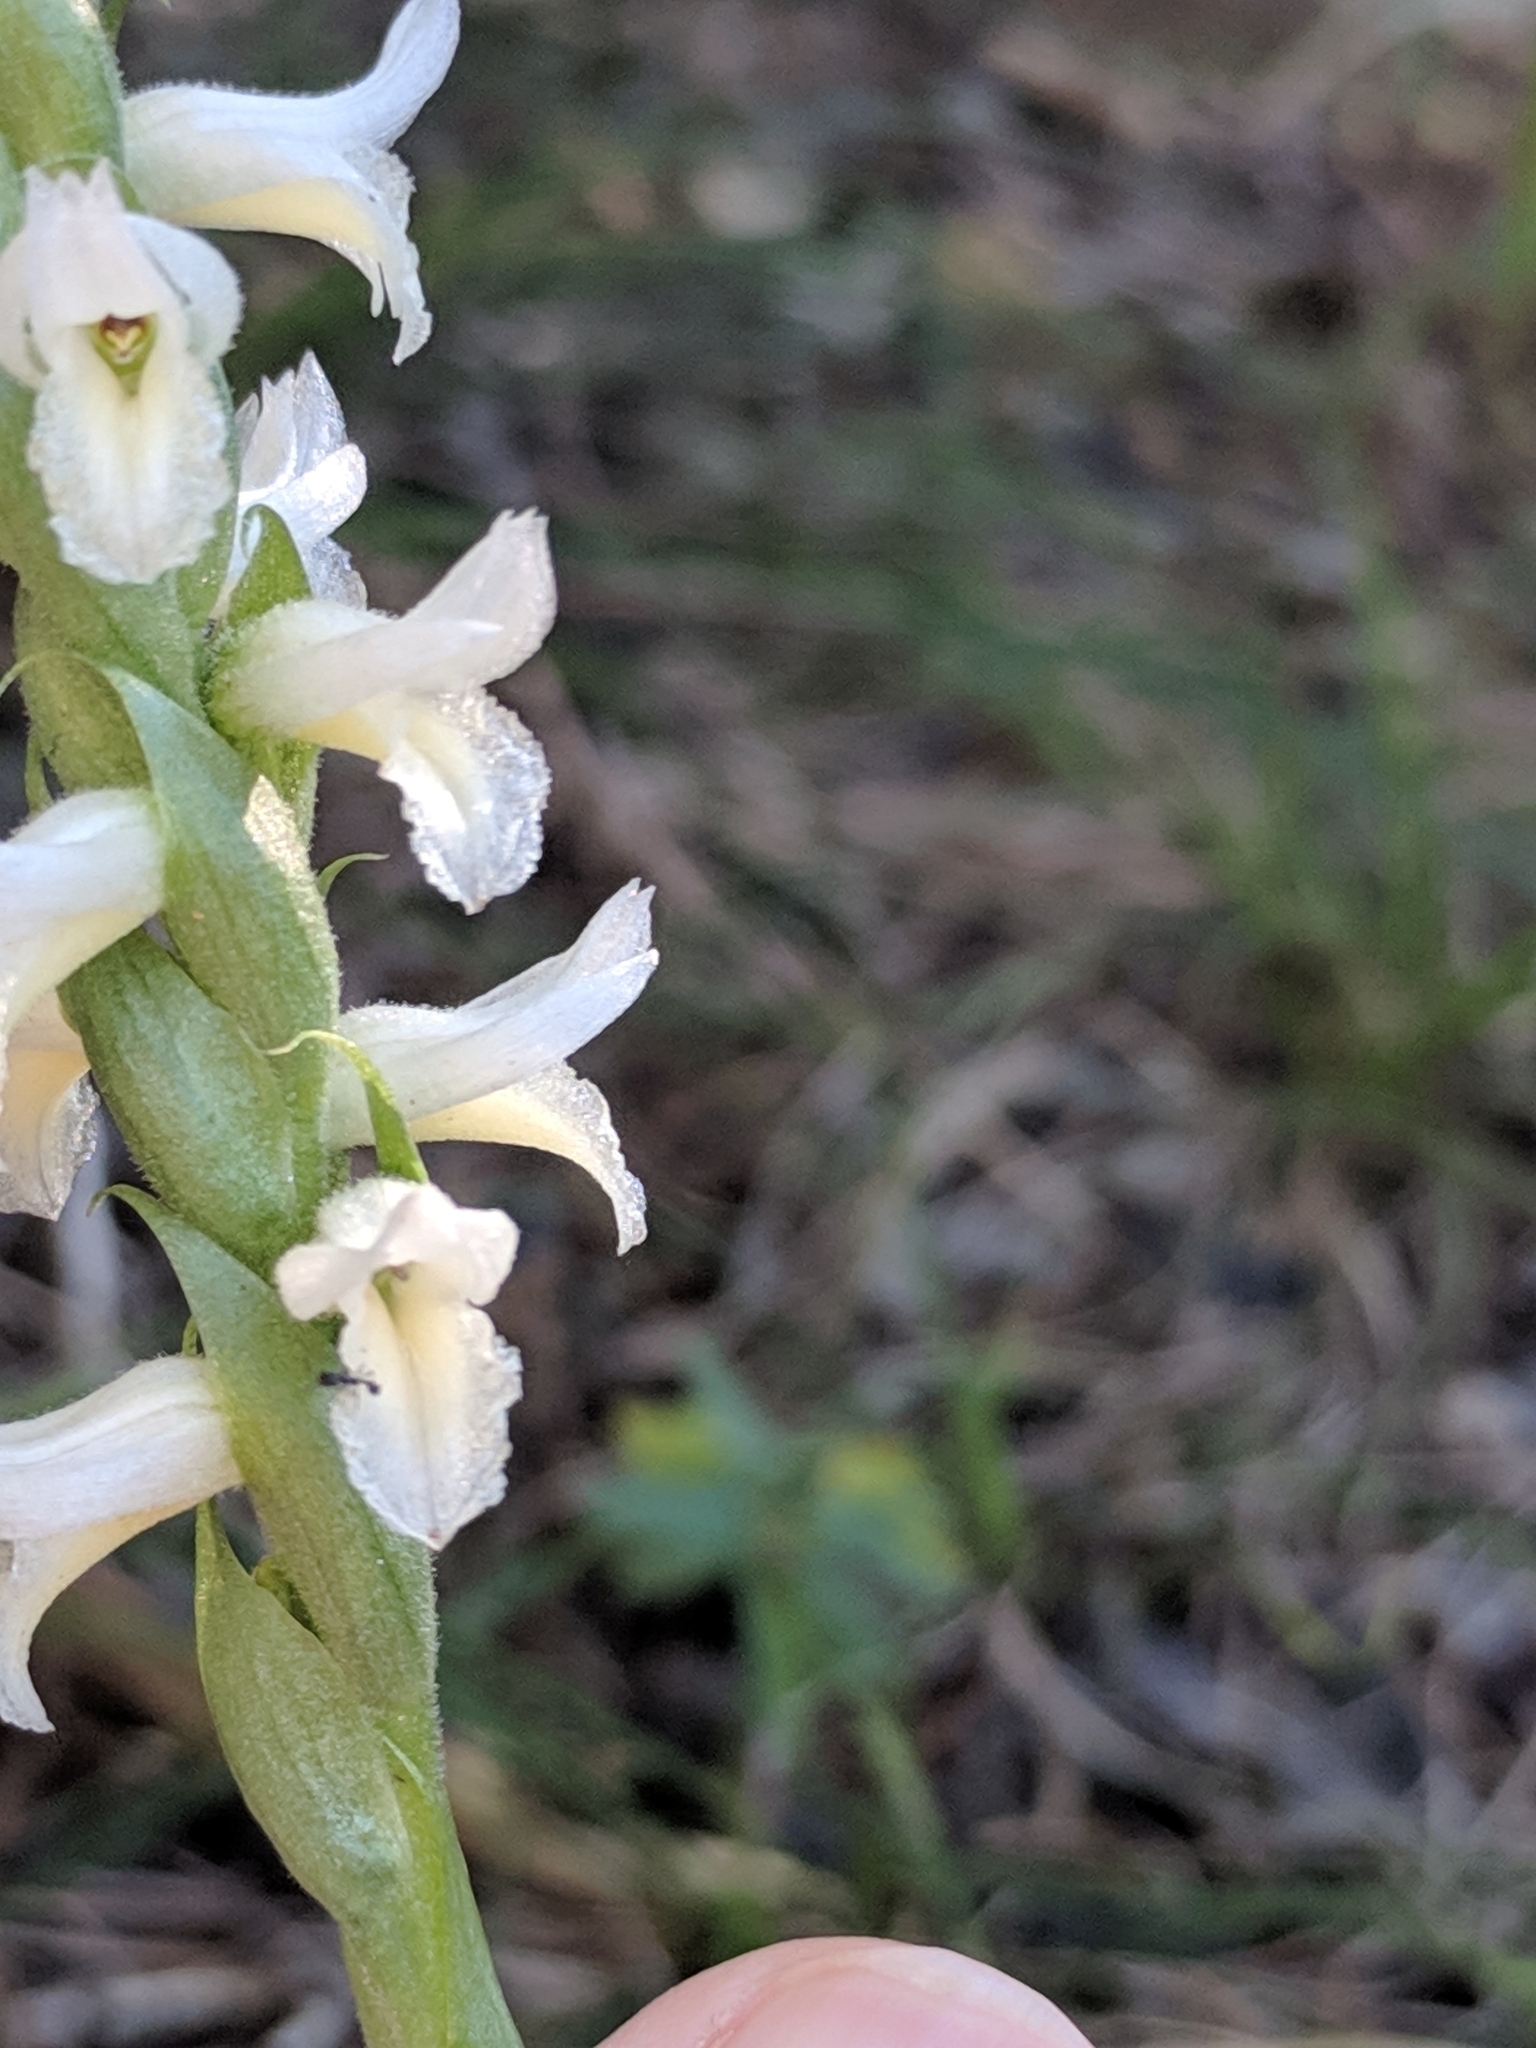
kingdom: Plantae
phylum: Tracheophyta
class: Liliopsida
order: Asparagales
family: Orchidaceae
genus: Spiranthes
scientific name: Spiranthes magnicamporum
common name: Great plains ladies'-tresses
